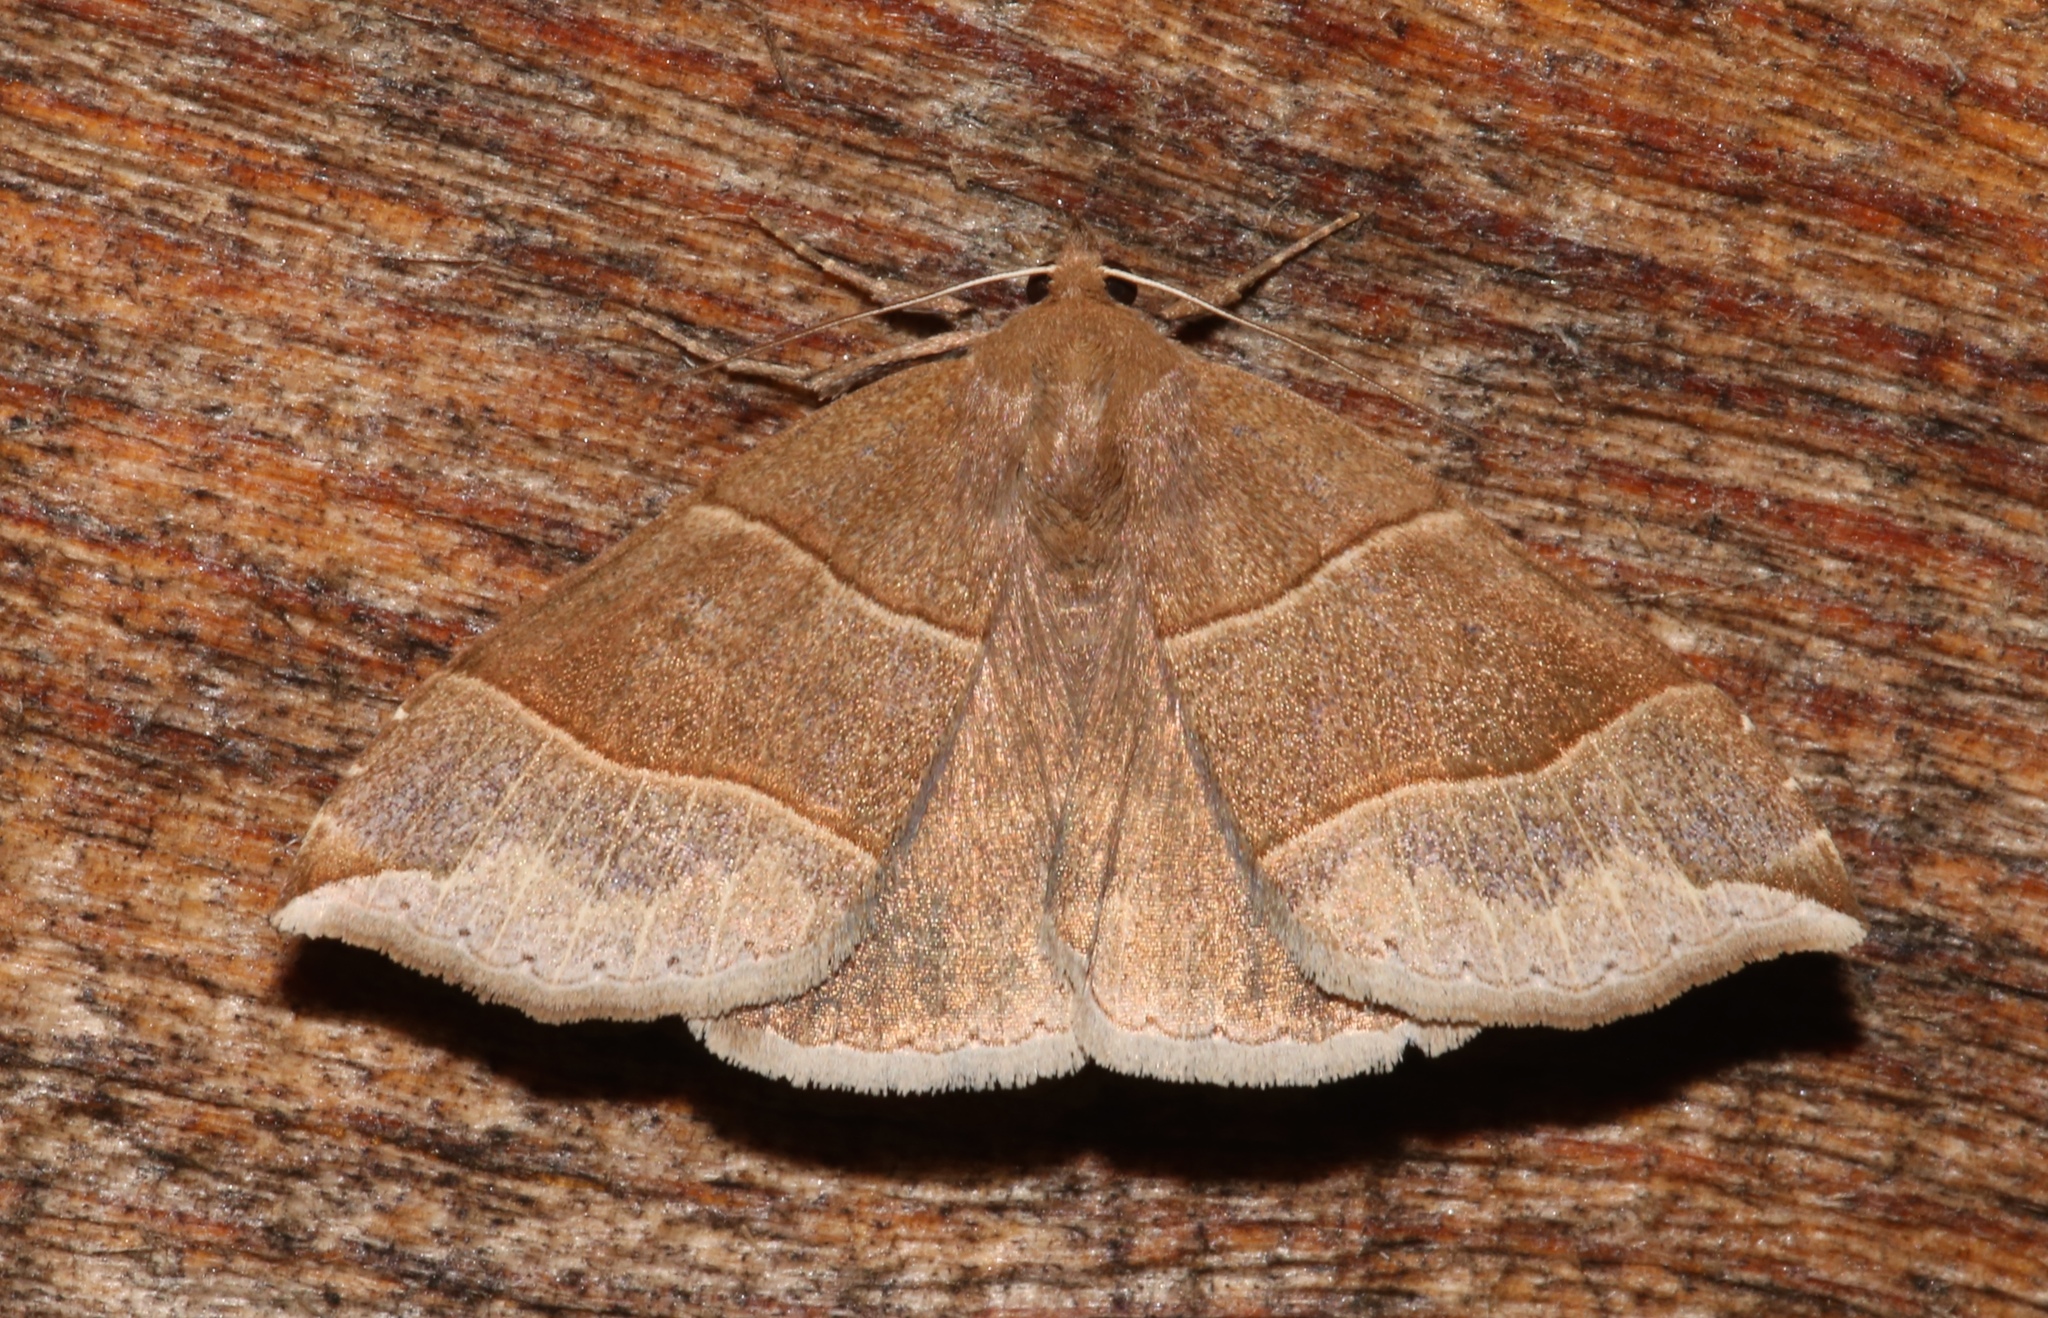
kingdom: Animalia
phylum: Arthropoda
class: Insecta
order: Lepidoptera
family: Erebidae
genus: Parallelia
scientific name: Parallelia bistriaris
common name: Maple looper moth
